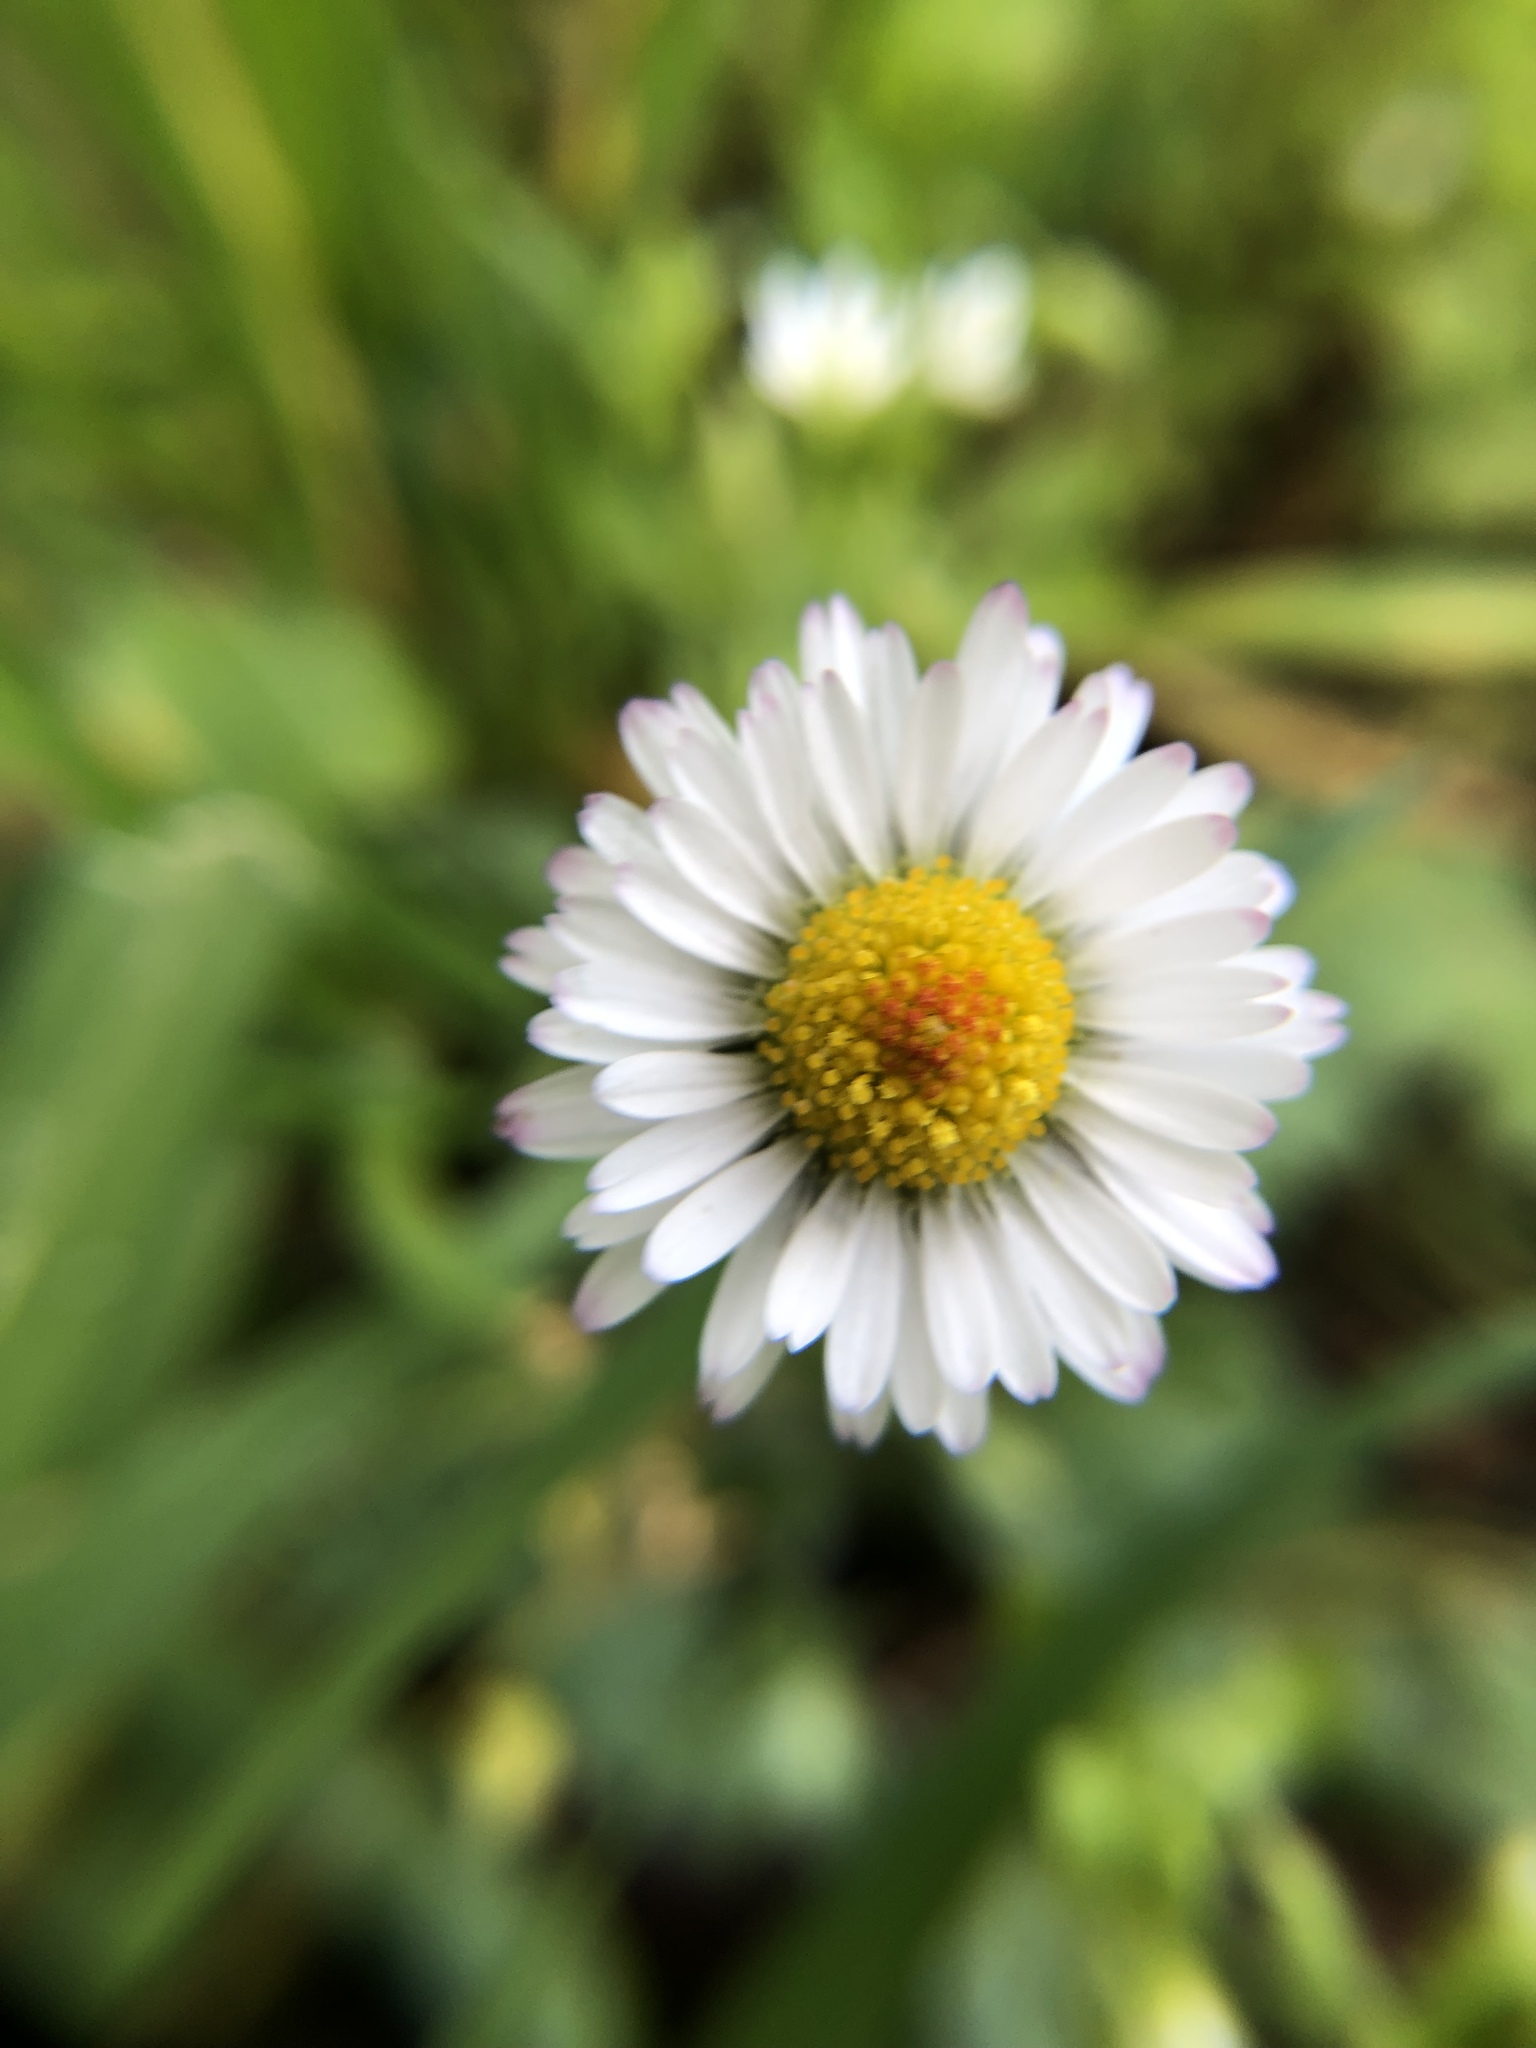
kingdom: Plantae
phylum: Tracheophyta
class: Magnoliopsida
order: Asterales
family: Asteraceae
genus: Bellis
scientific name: Bellis perennis
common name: Lawndaisy
